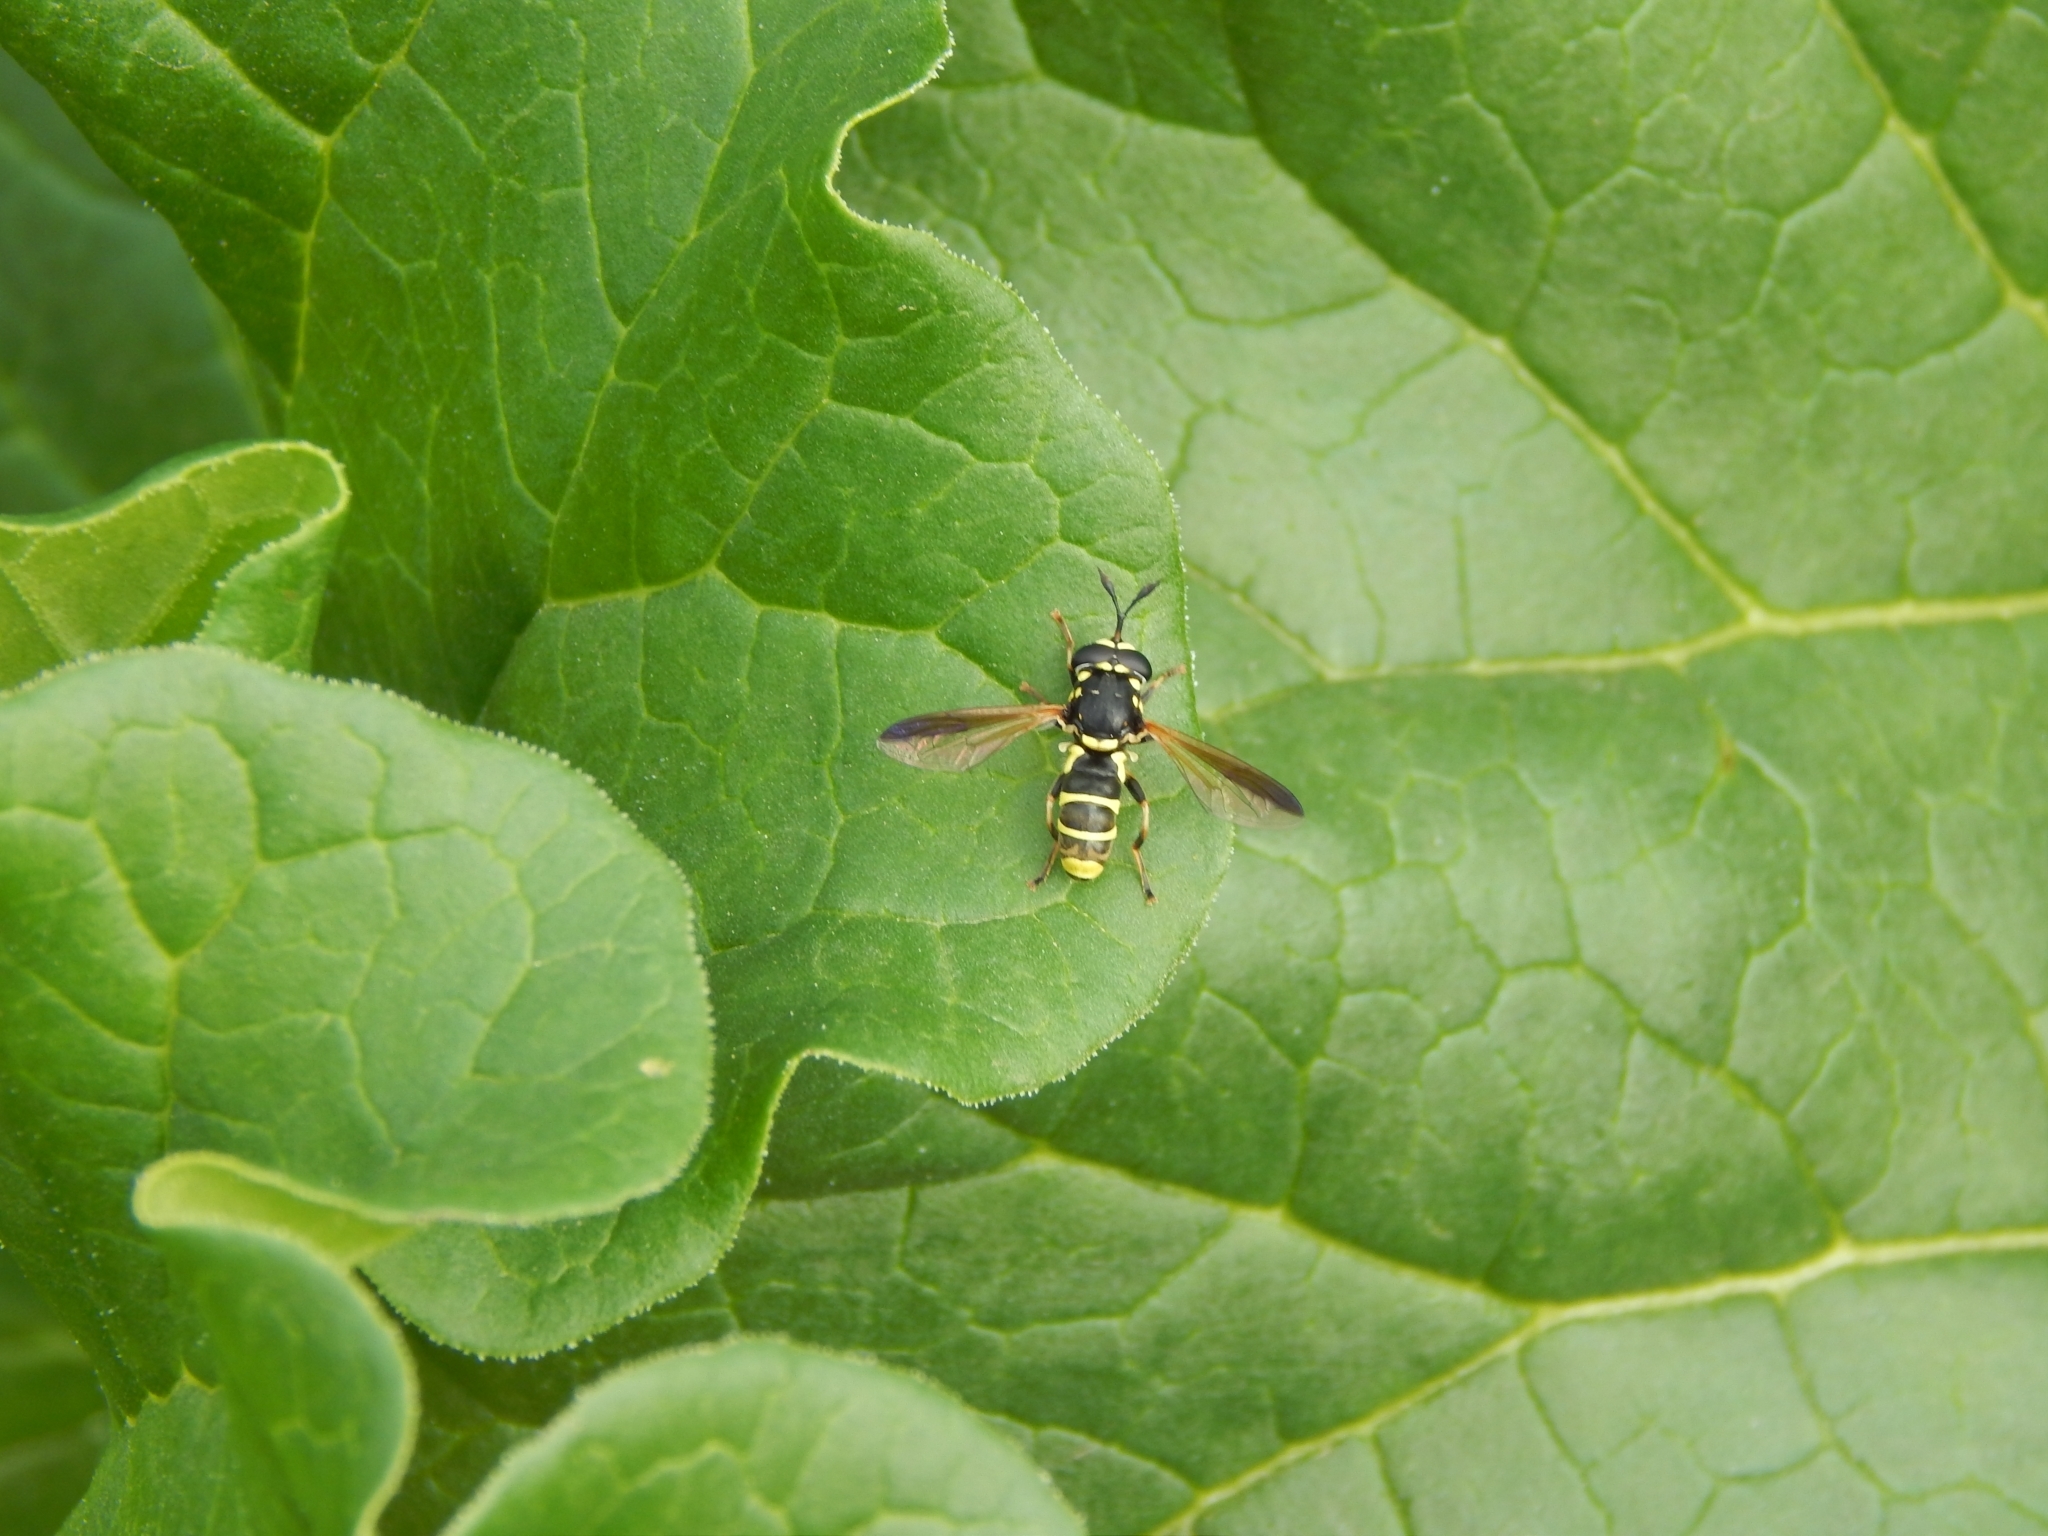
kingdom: Animalia
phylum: Arthropoda
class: Insecta
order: Diptera
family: Syrphidae
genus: Ceriana
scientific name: Ceriana tridens
